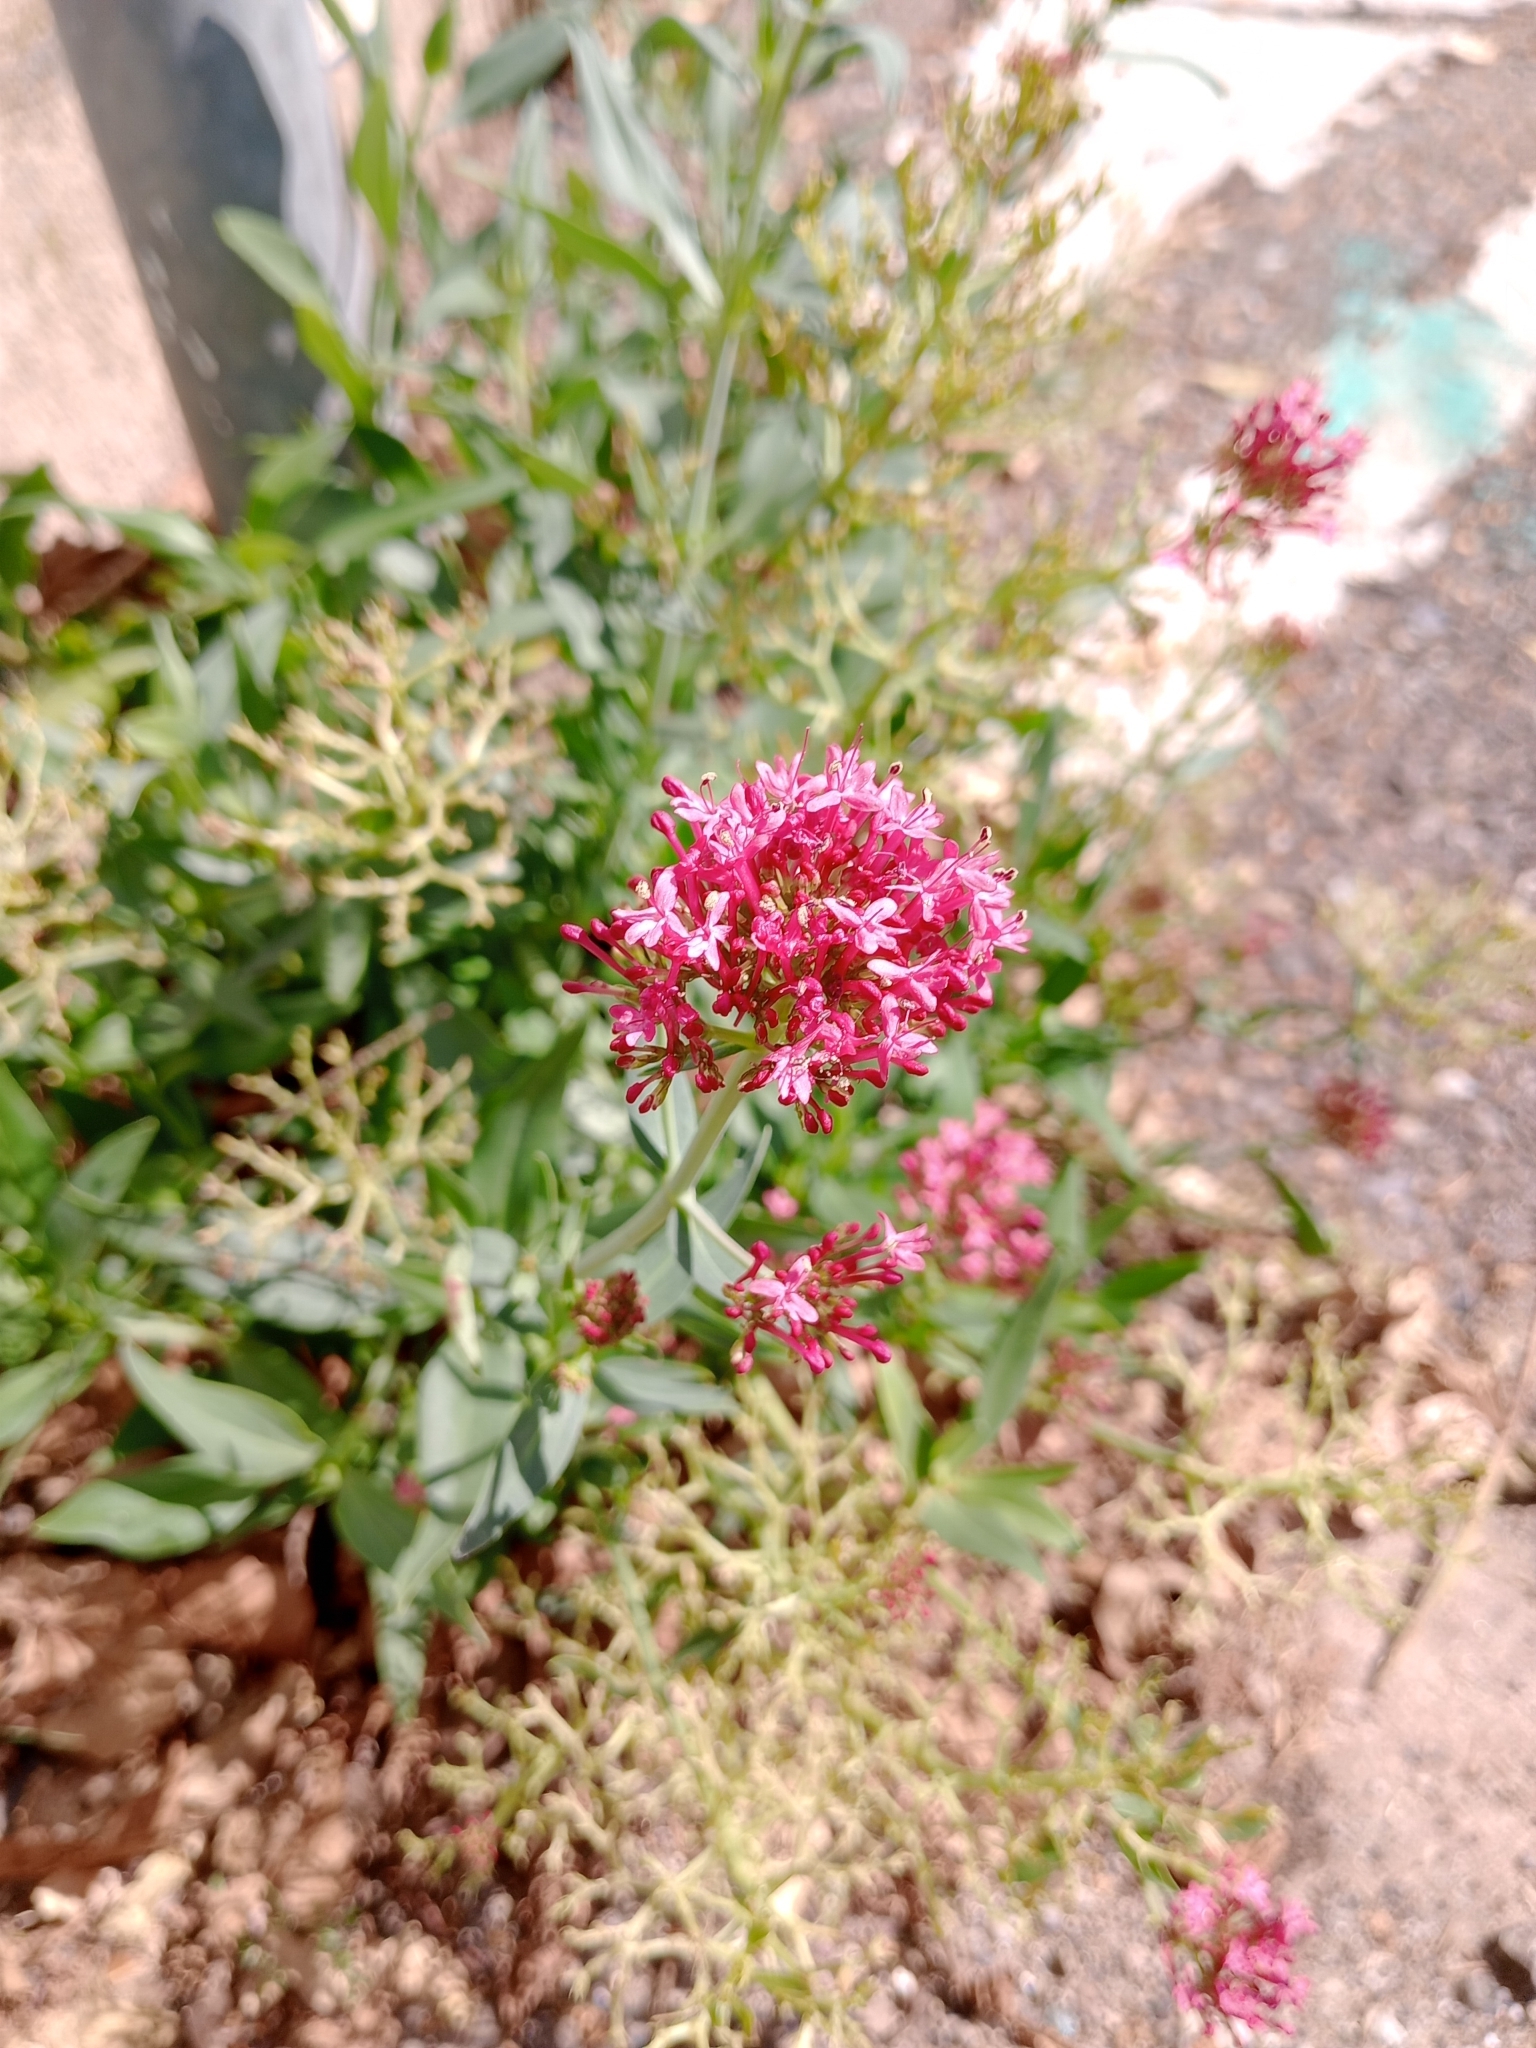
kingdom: Plantae
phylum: Tracheophyta
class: Magnoliopsida
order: Dipsacales
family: Caprifoliaceae
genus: Centranthus
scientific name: Centranthus ruber
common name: Red valerian
